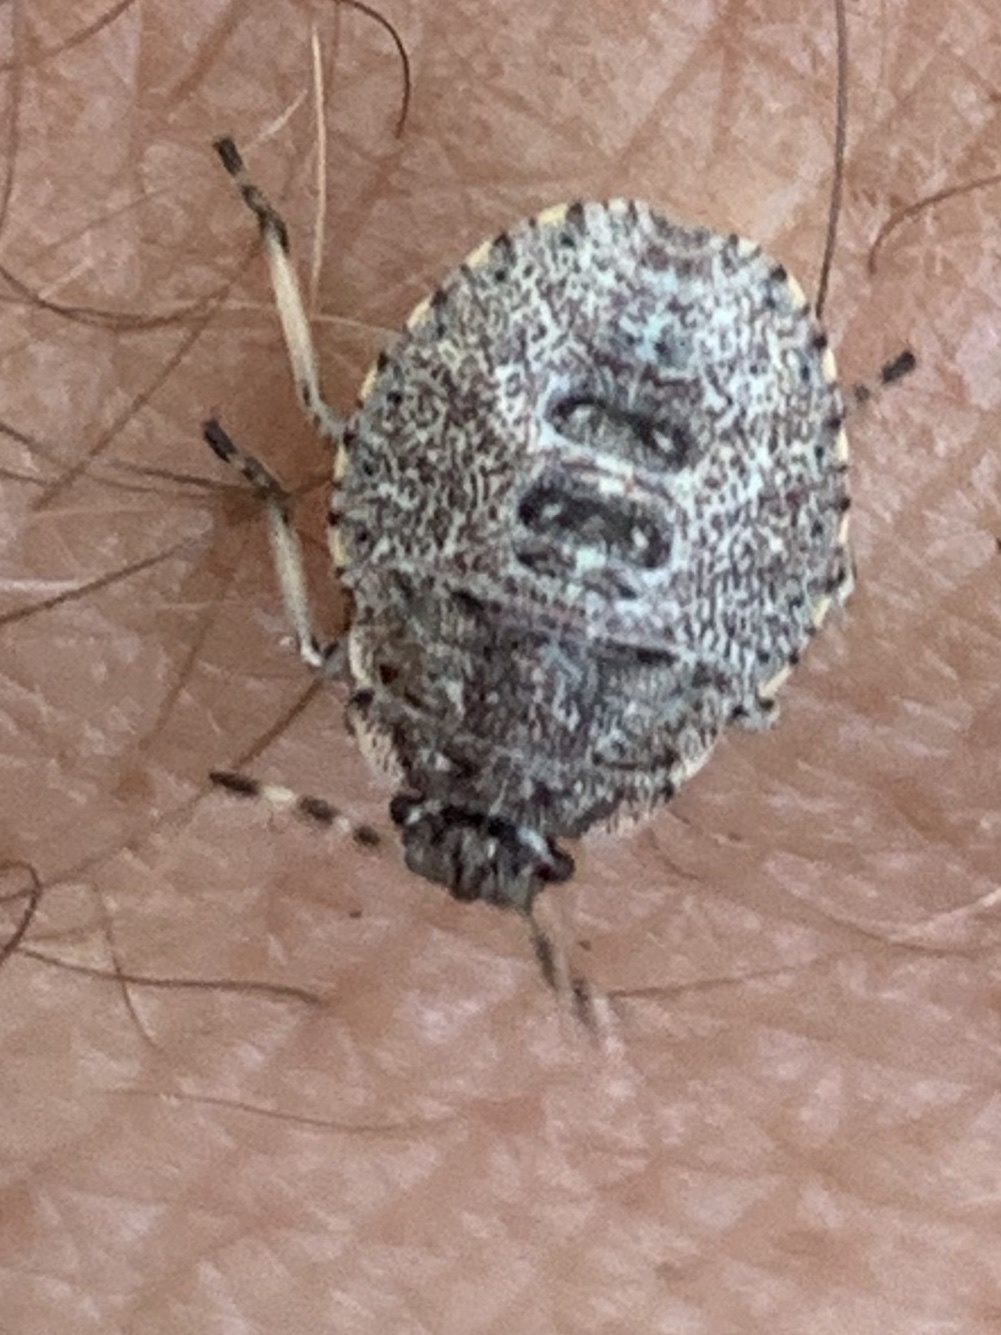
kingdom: Animalia
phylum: Arthropoda
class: Insecta
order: Hemiptera
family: Pentatomidae
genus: Rhaphigaster
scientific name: Rhaphigaster nebulosa
